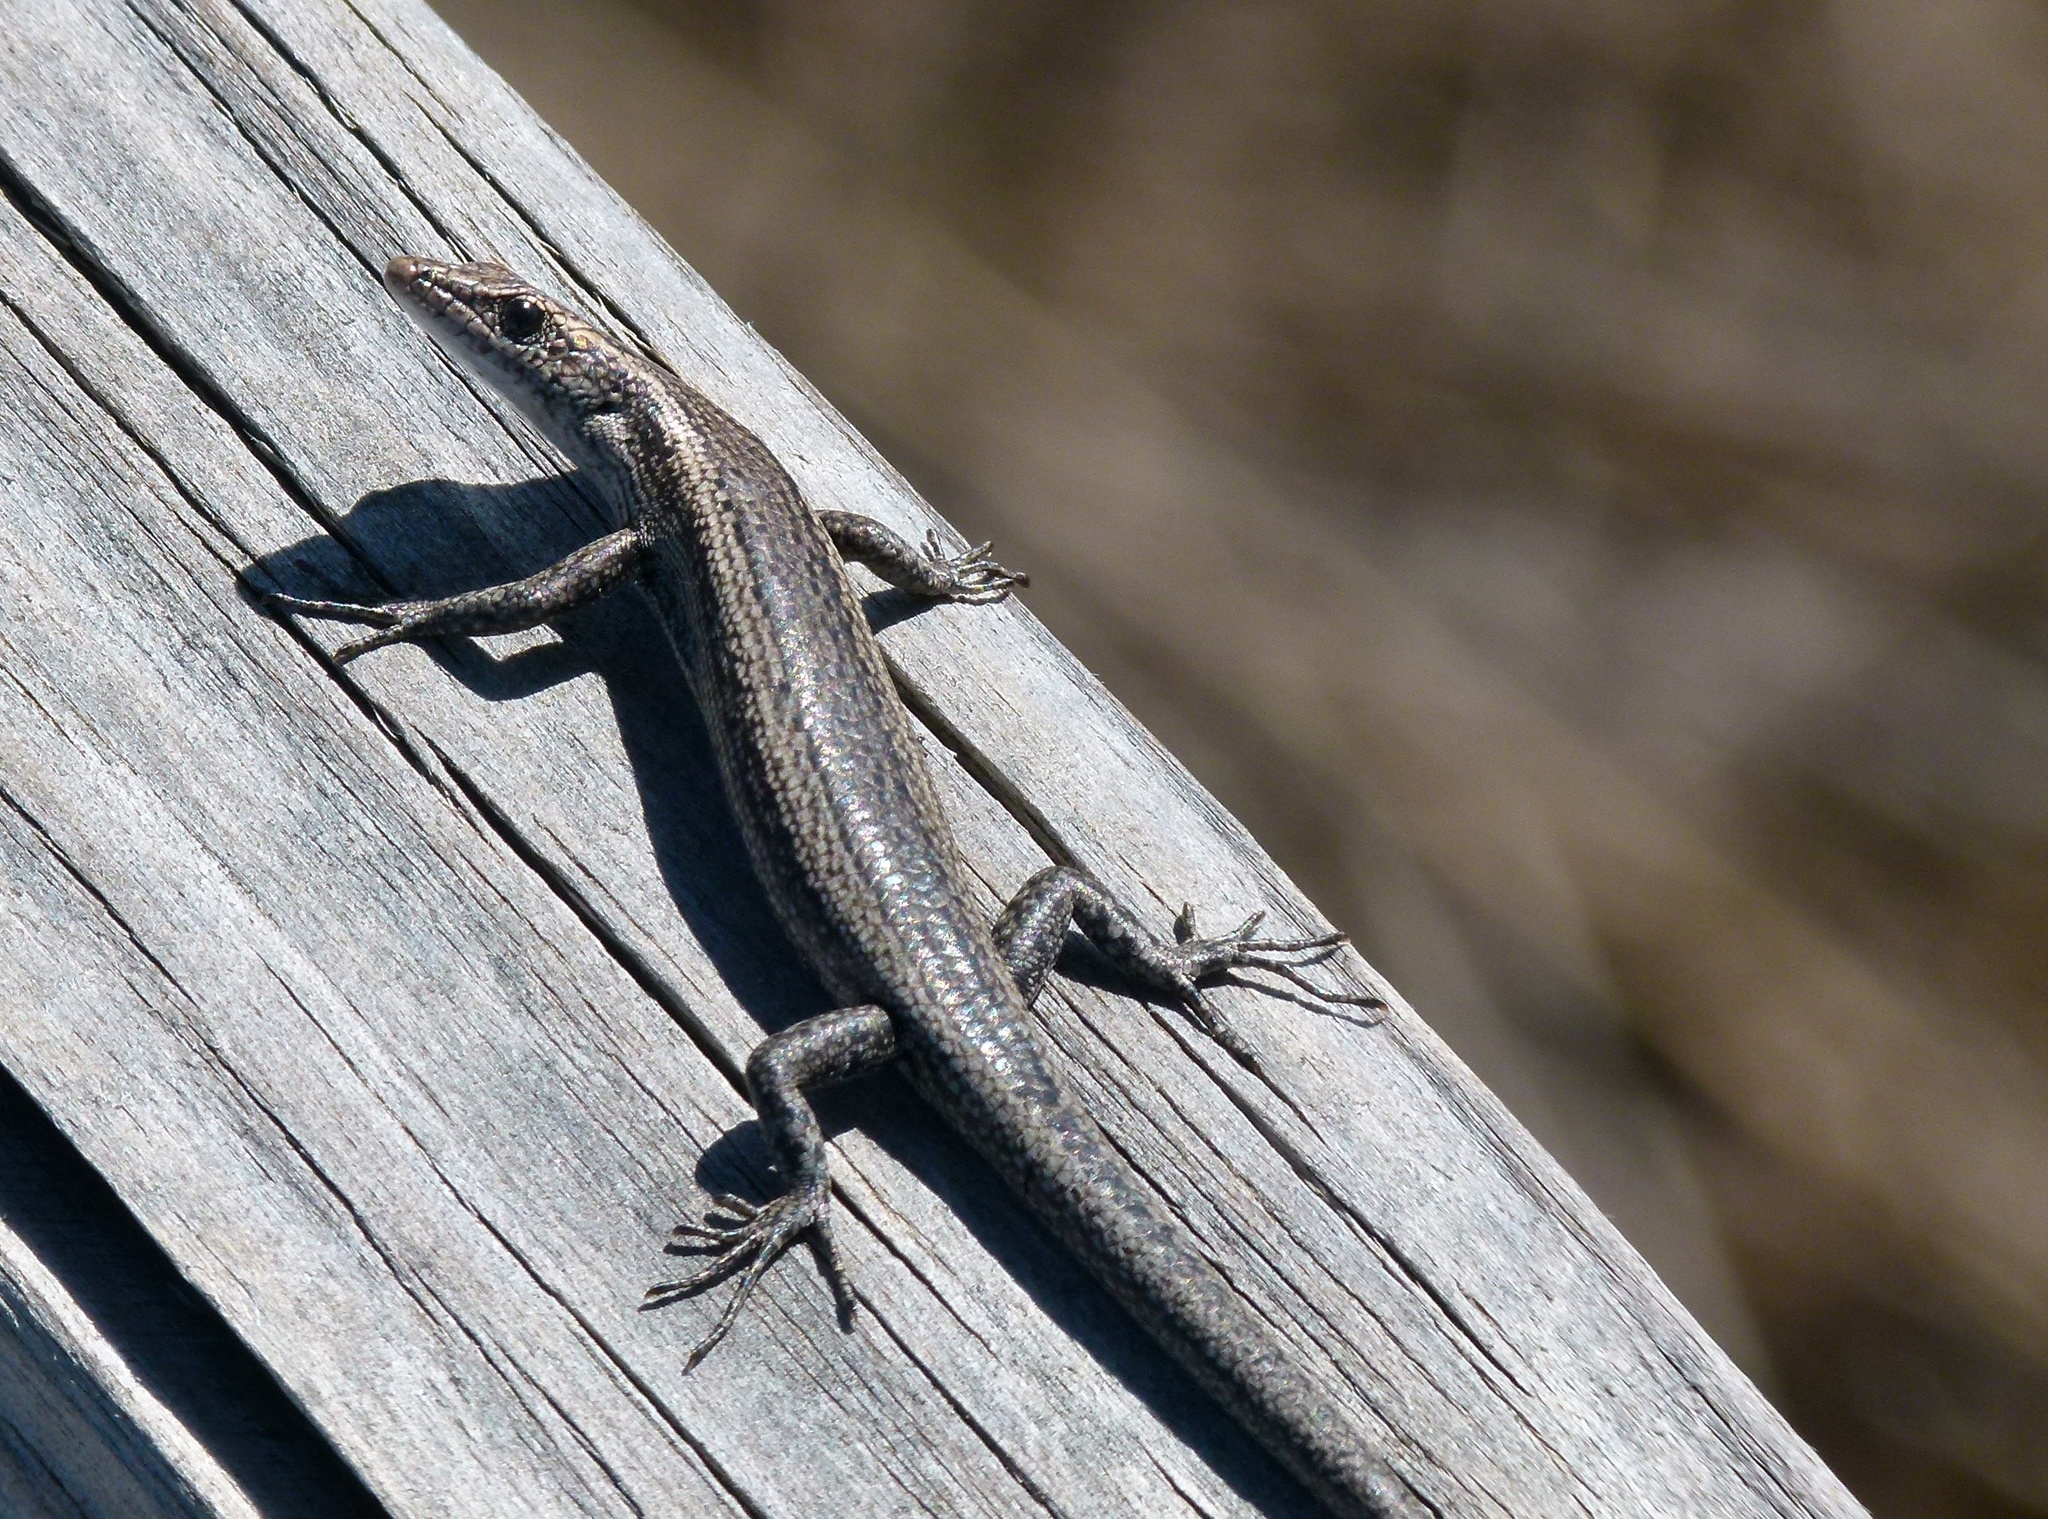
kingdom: Animalia
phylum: Chordata
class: Squamata
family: Scincidae
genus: Cryptoblepharus
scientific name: Cryptoblepharus buchananii
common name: Buchanan's snake-eyed skink
